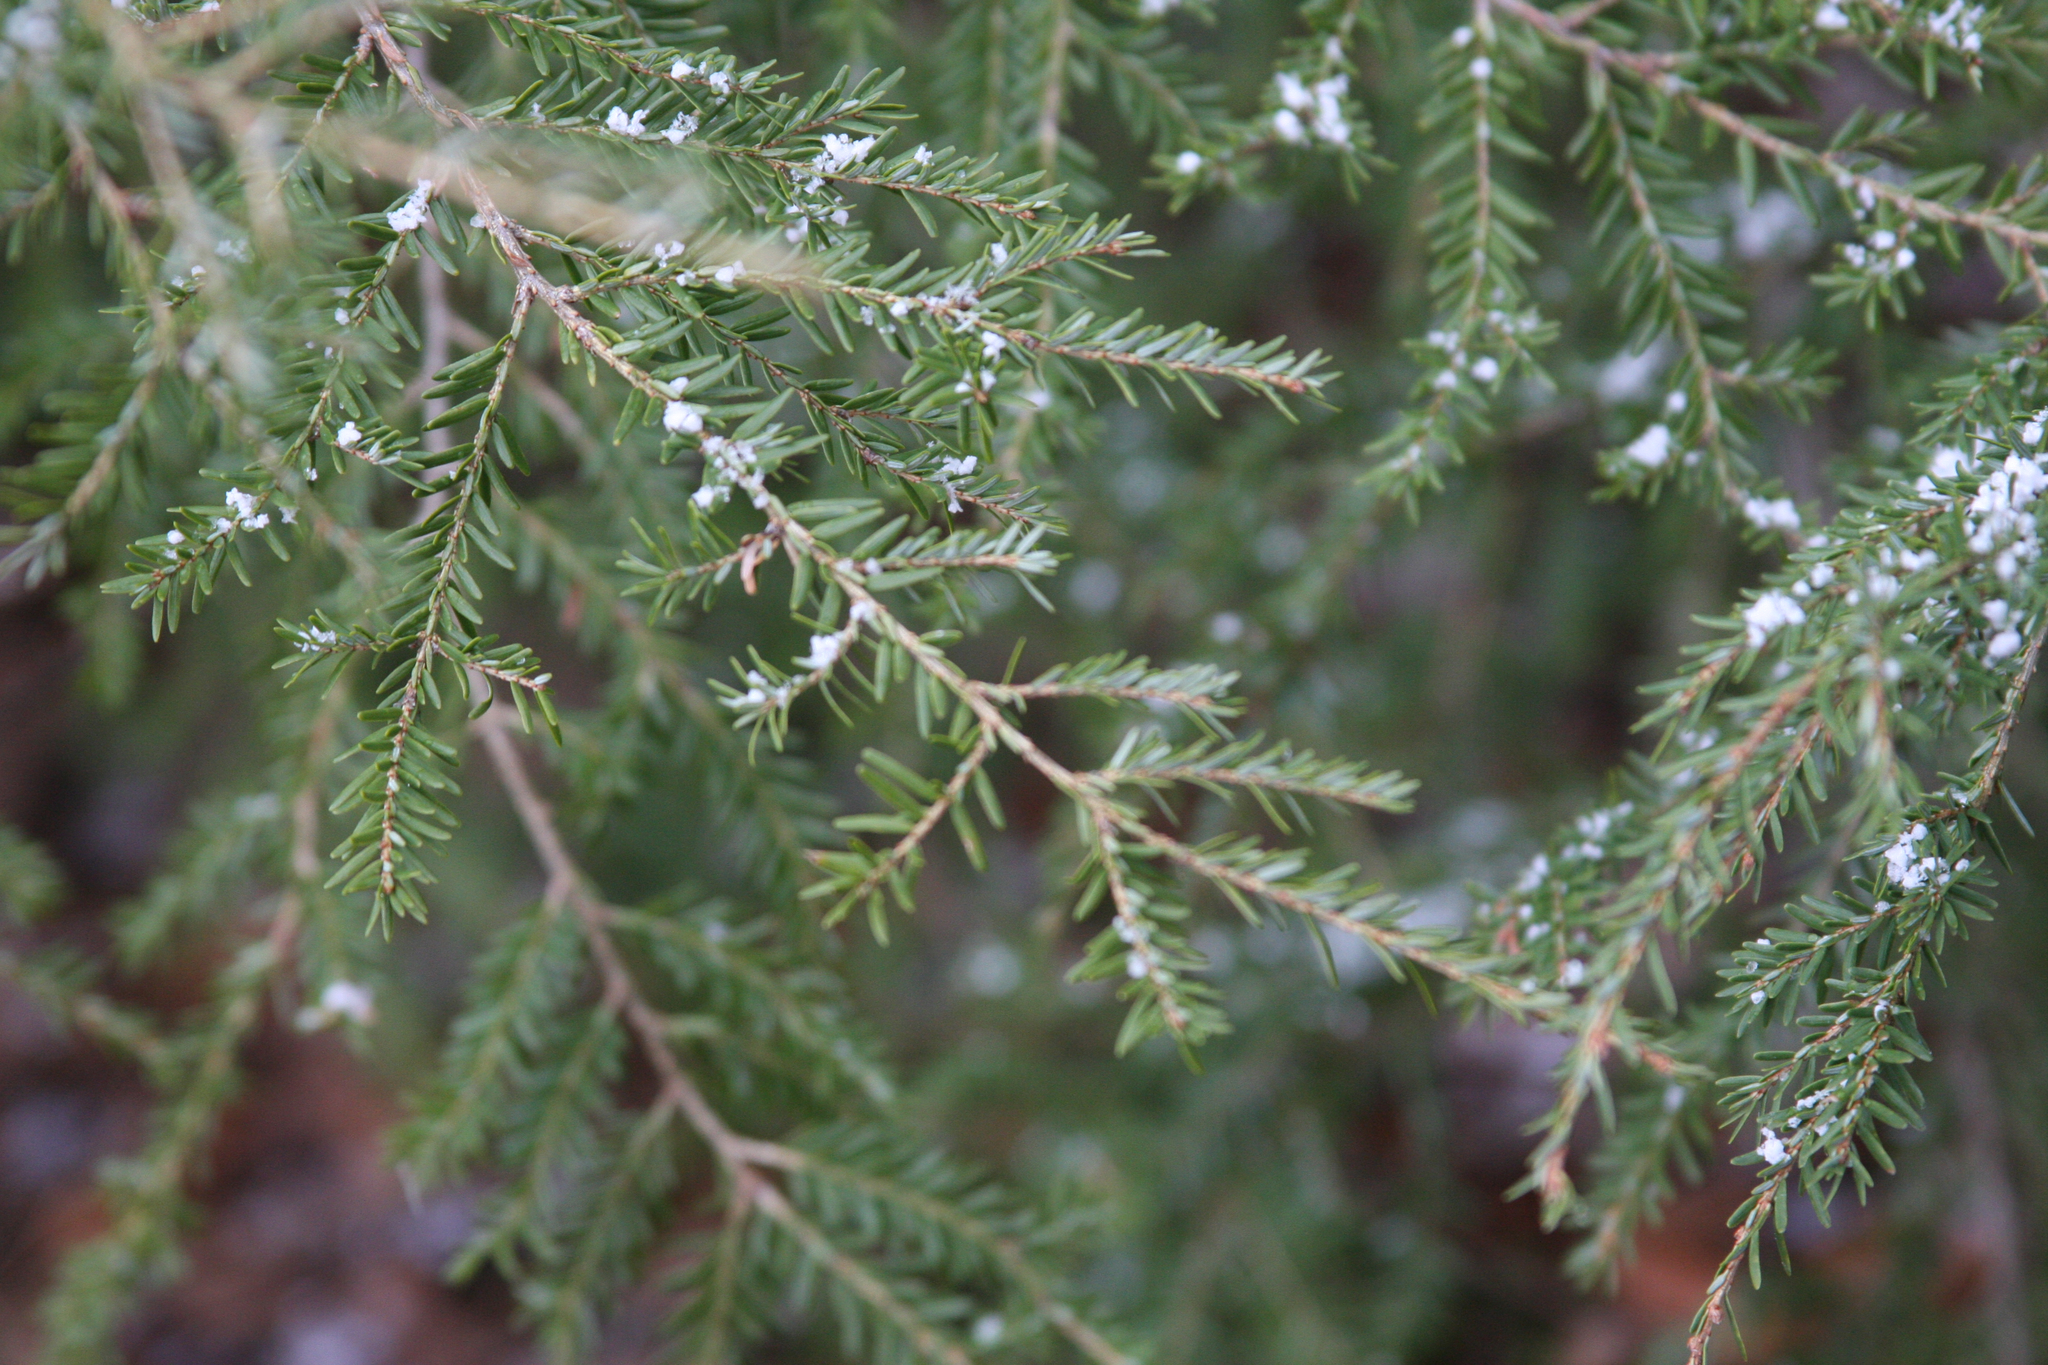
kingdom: Plantae
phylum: Tracheophyta
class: Pinopsida
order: Pinales
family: Pinaceae
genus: Tsuga
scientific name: Tsuga canadensis
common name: Eastern hemlock
